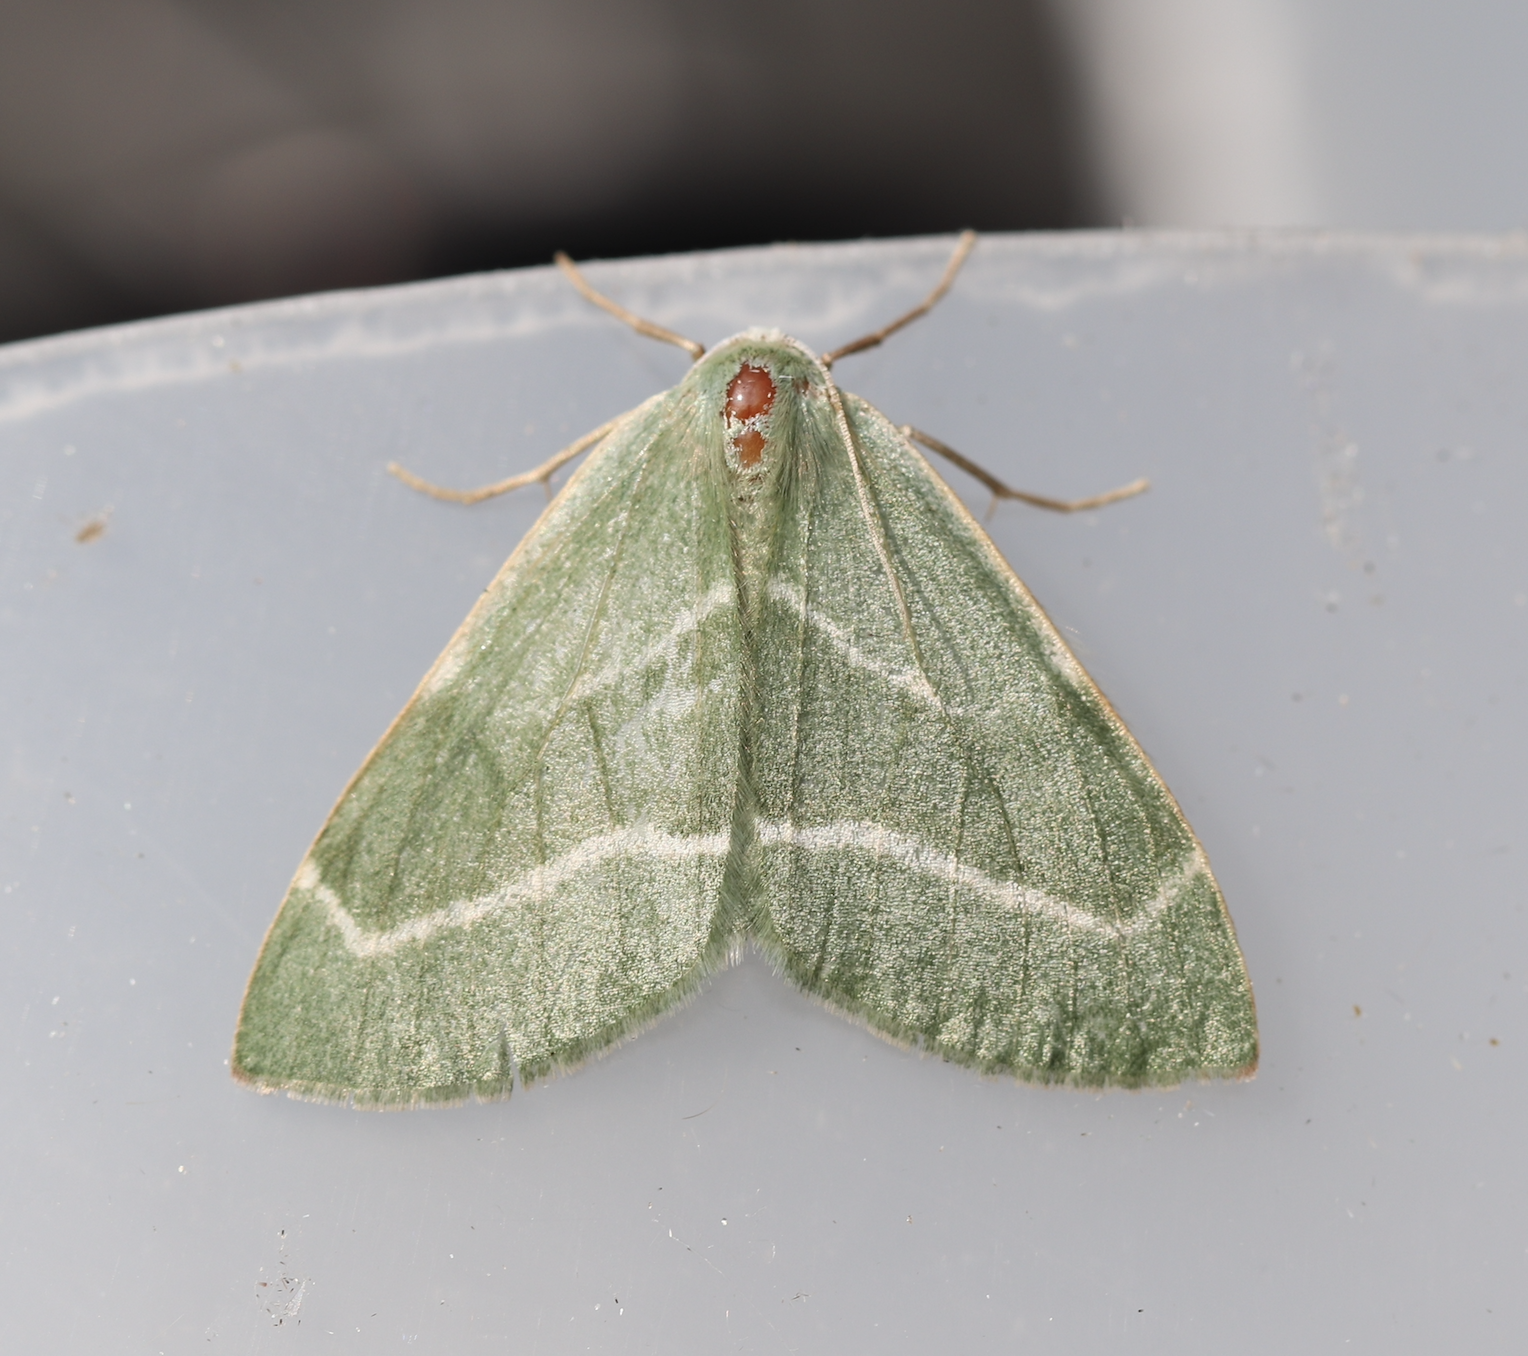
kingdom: Animalia
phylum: Arthropoda
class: Insecta
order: Lepidoptera
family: Geometridae
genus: Hylaea
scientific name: Hylaea fasciaria
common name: Barred red
